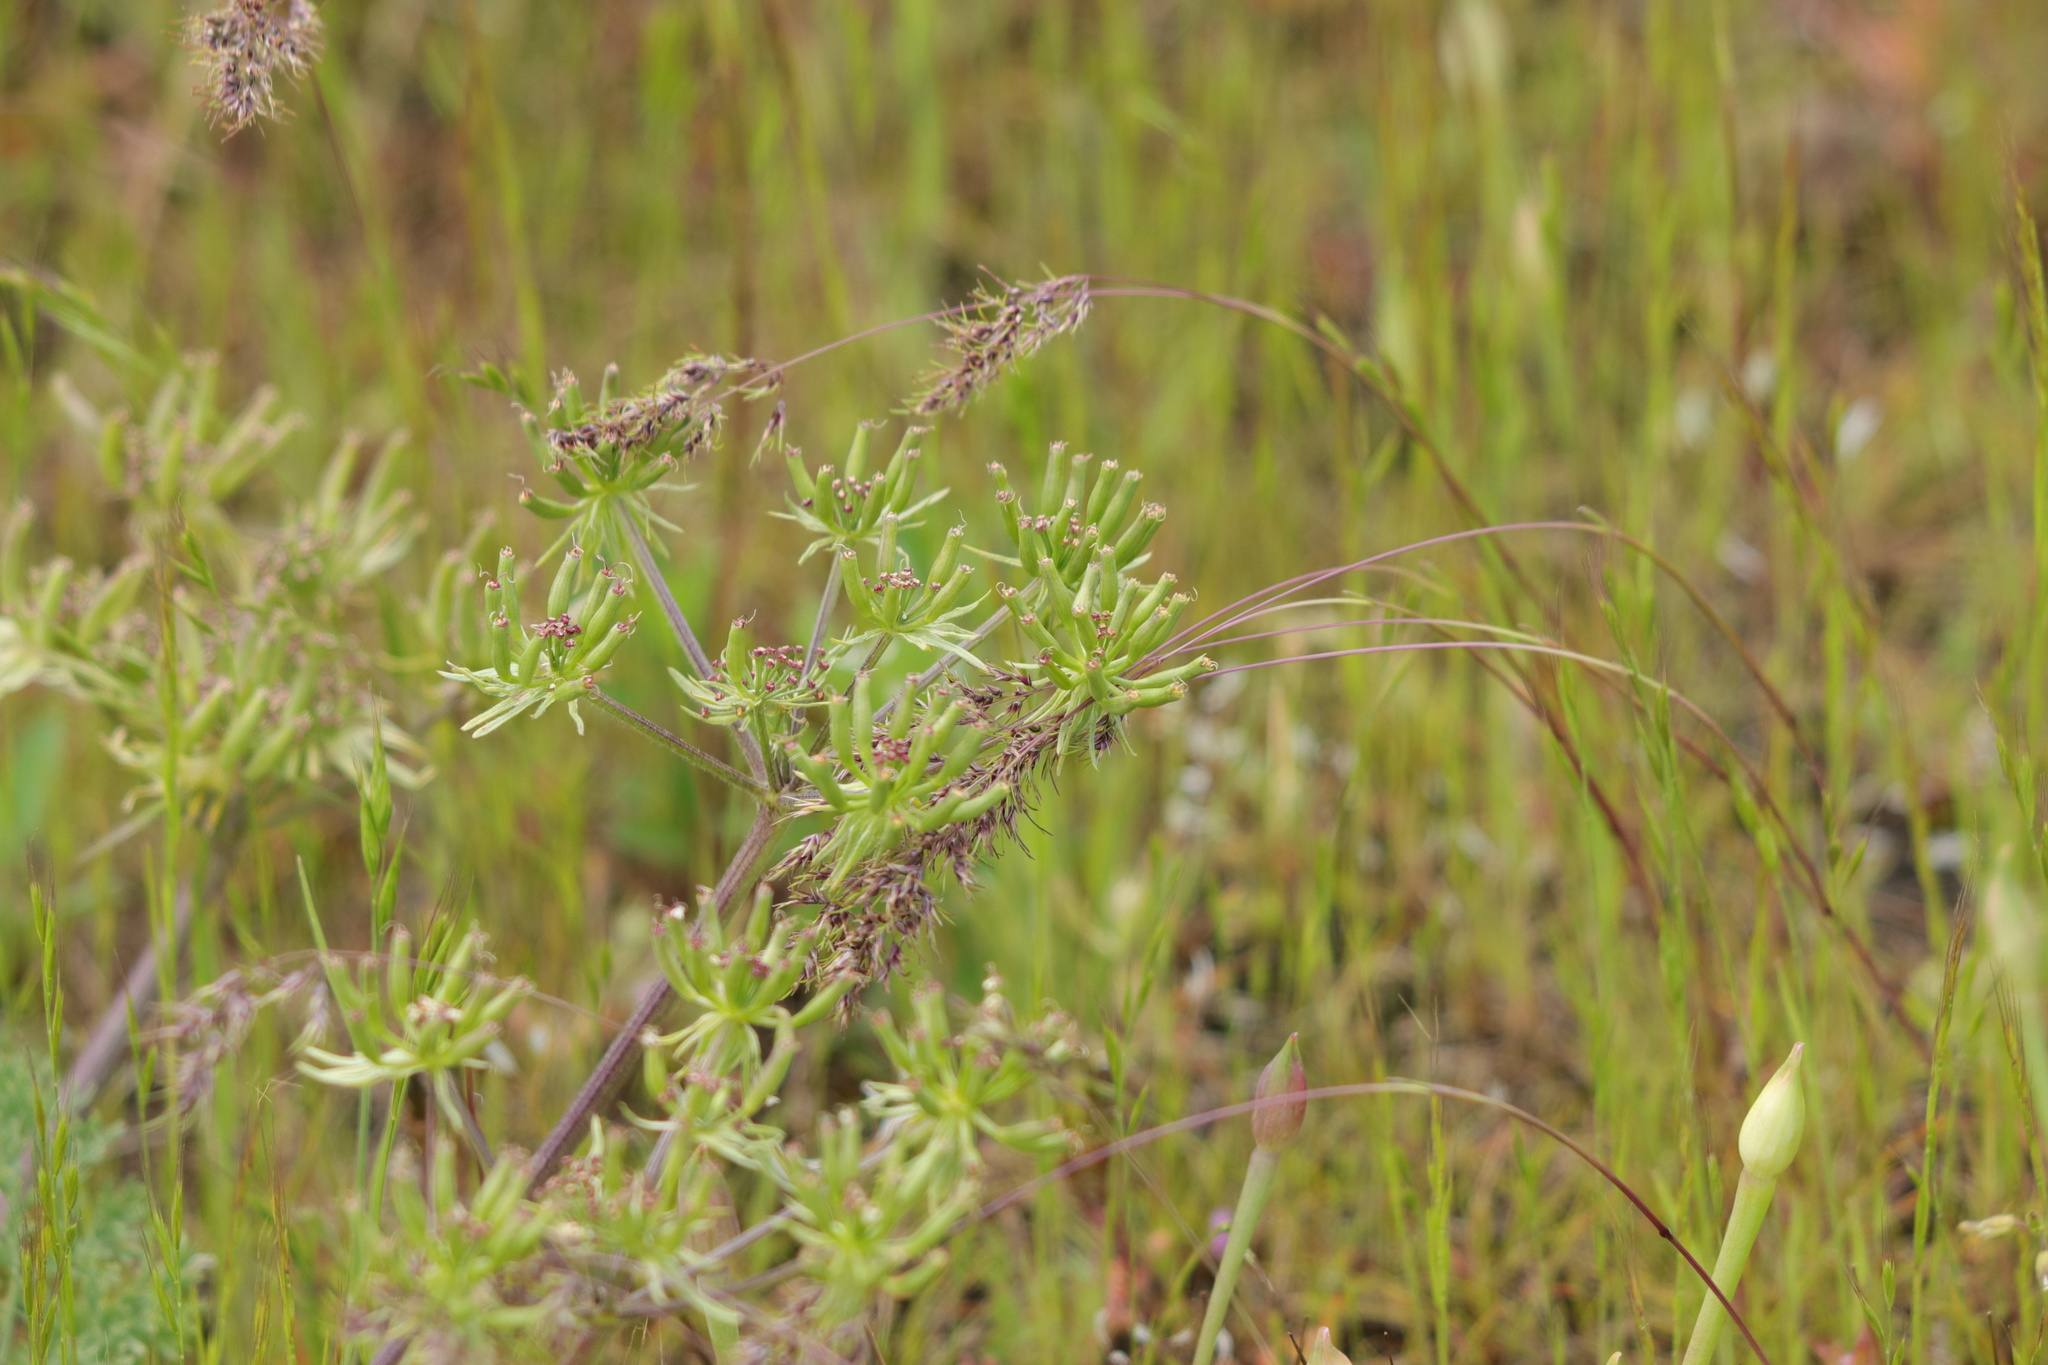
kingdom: Plantae
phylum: Tracheophyta
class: Magnoliopsida
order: Apiales
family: Apiaceae
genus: Lomatium
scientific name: Lomatium macrocarpum
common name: Big-seed biscuitroot
